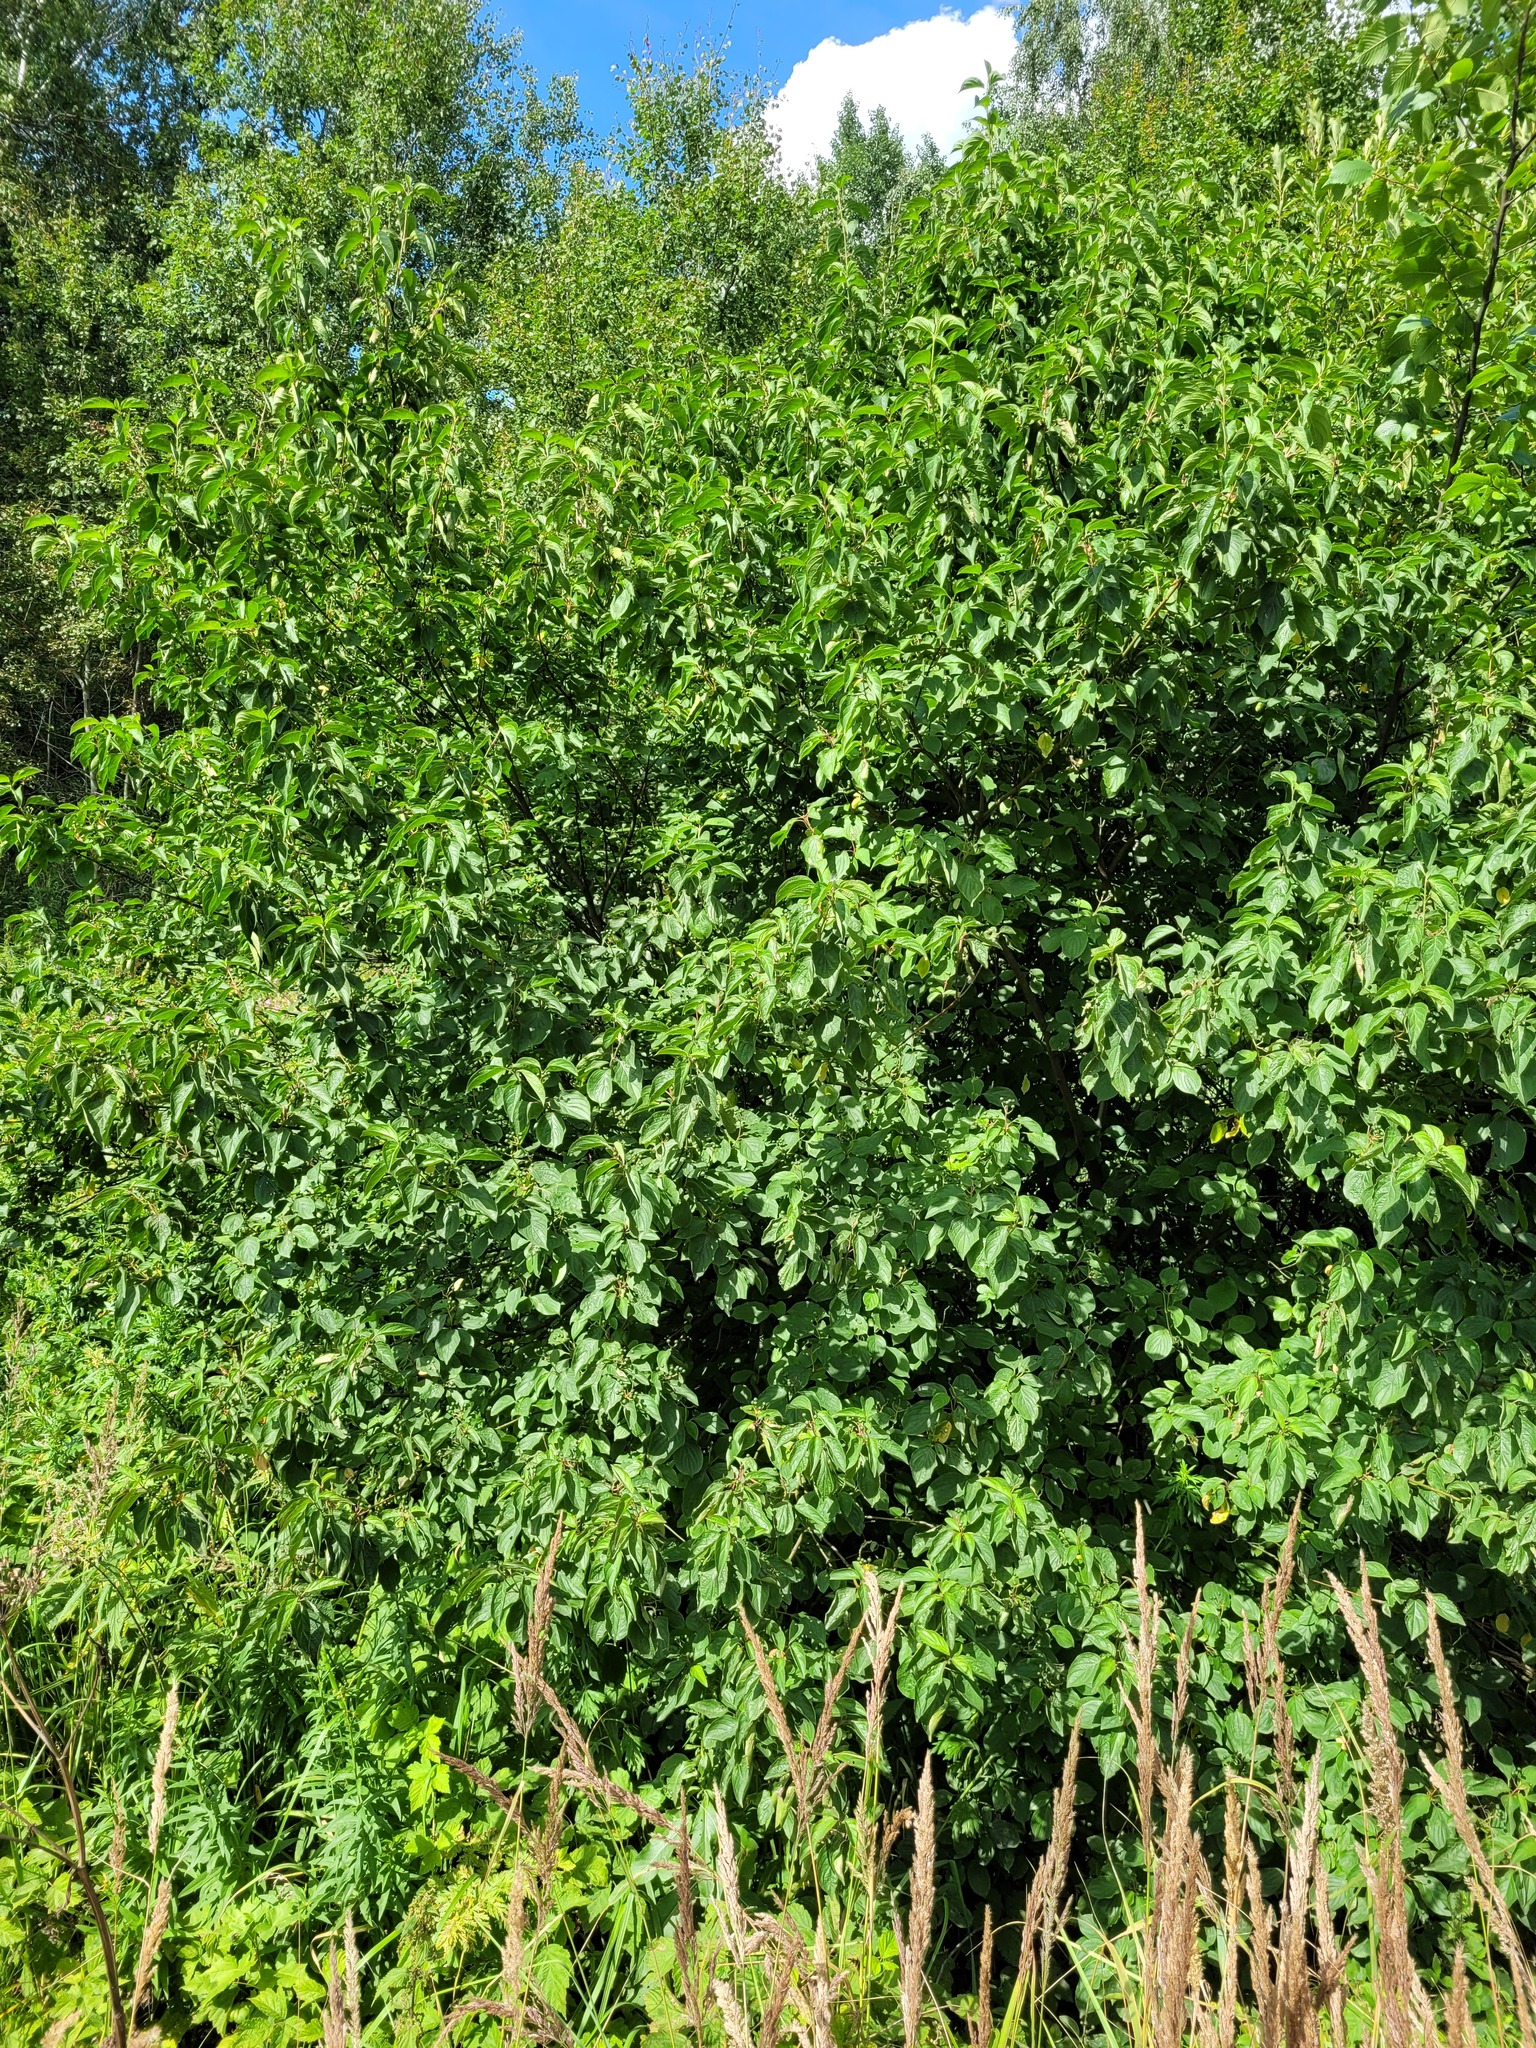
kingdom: Plantae
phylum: Tracheophyta
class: Magnoliopsida
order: Cornales
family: Cornaceae
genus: Cornus
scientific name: Cornus sanguinea
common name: Dogwood
